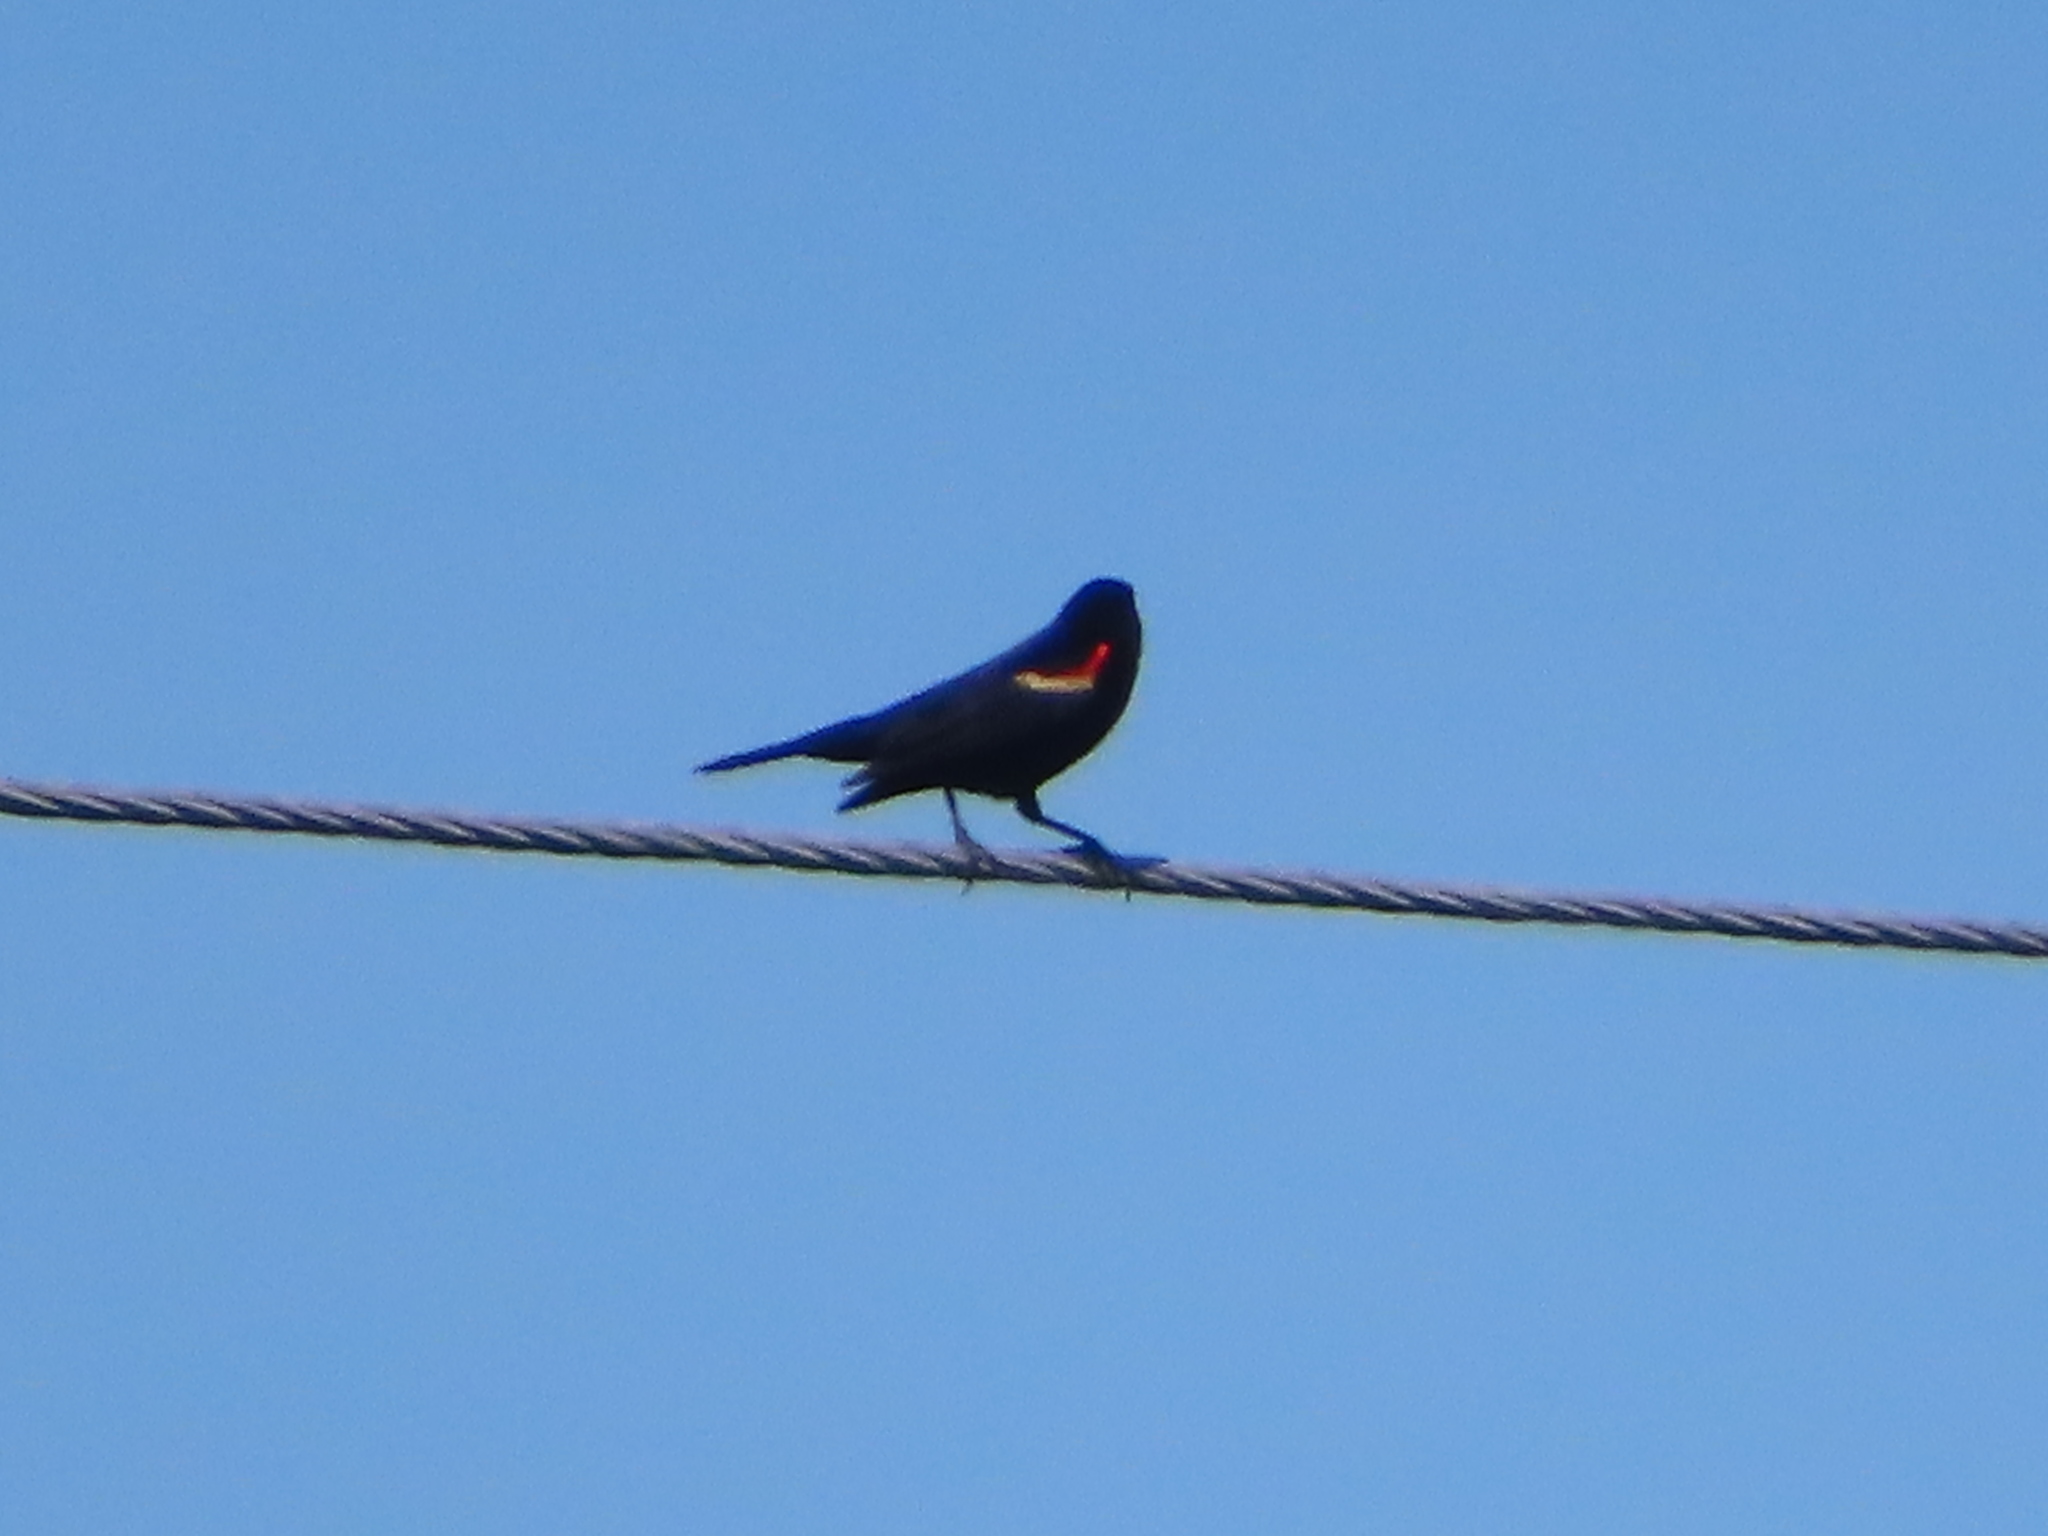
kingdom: Animalia
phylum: Chordata
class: Aves
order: Passeriformes
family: Icteridae
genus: Agelaius
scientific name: Agelaius phoeniceus
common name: Red-winged blackbird
